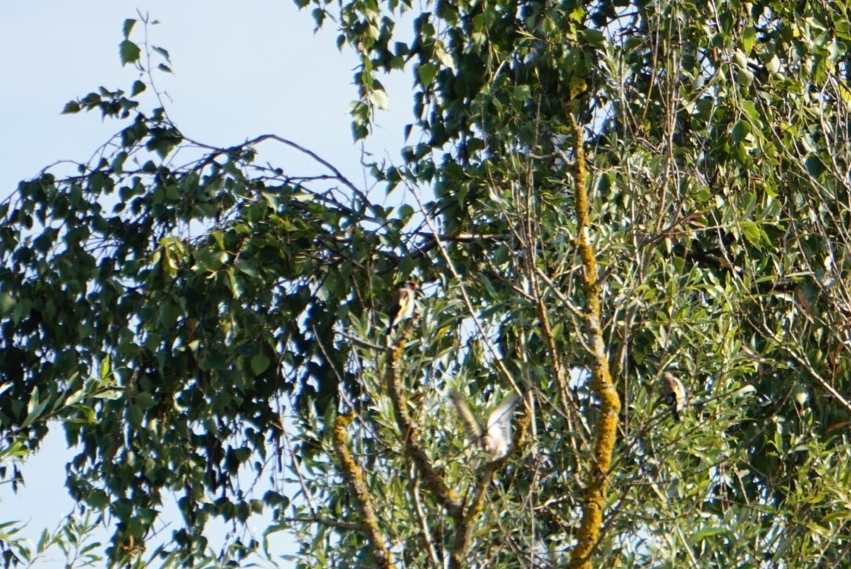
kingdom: Animalia
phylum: Chordata
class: Aves
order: Passeriformes
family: Fringillidae
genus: Carduelis
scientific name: Carduelis carduelis
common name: European goldfinch
